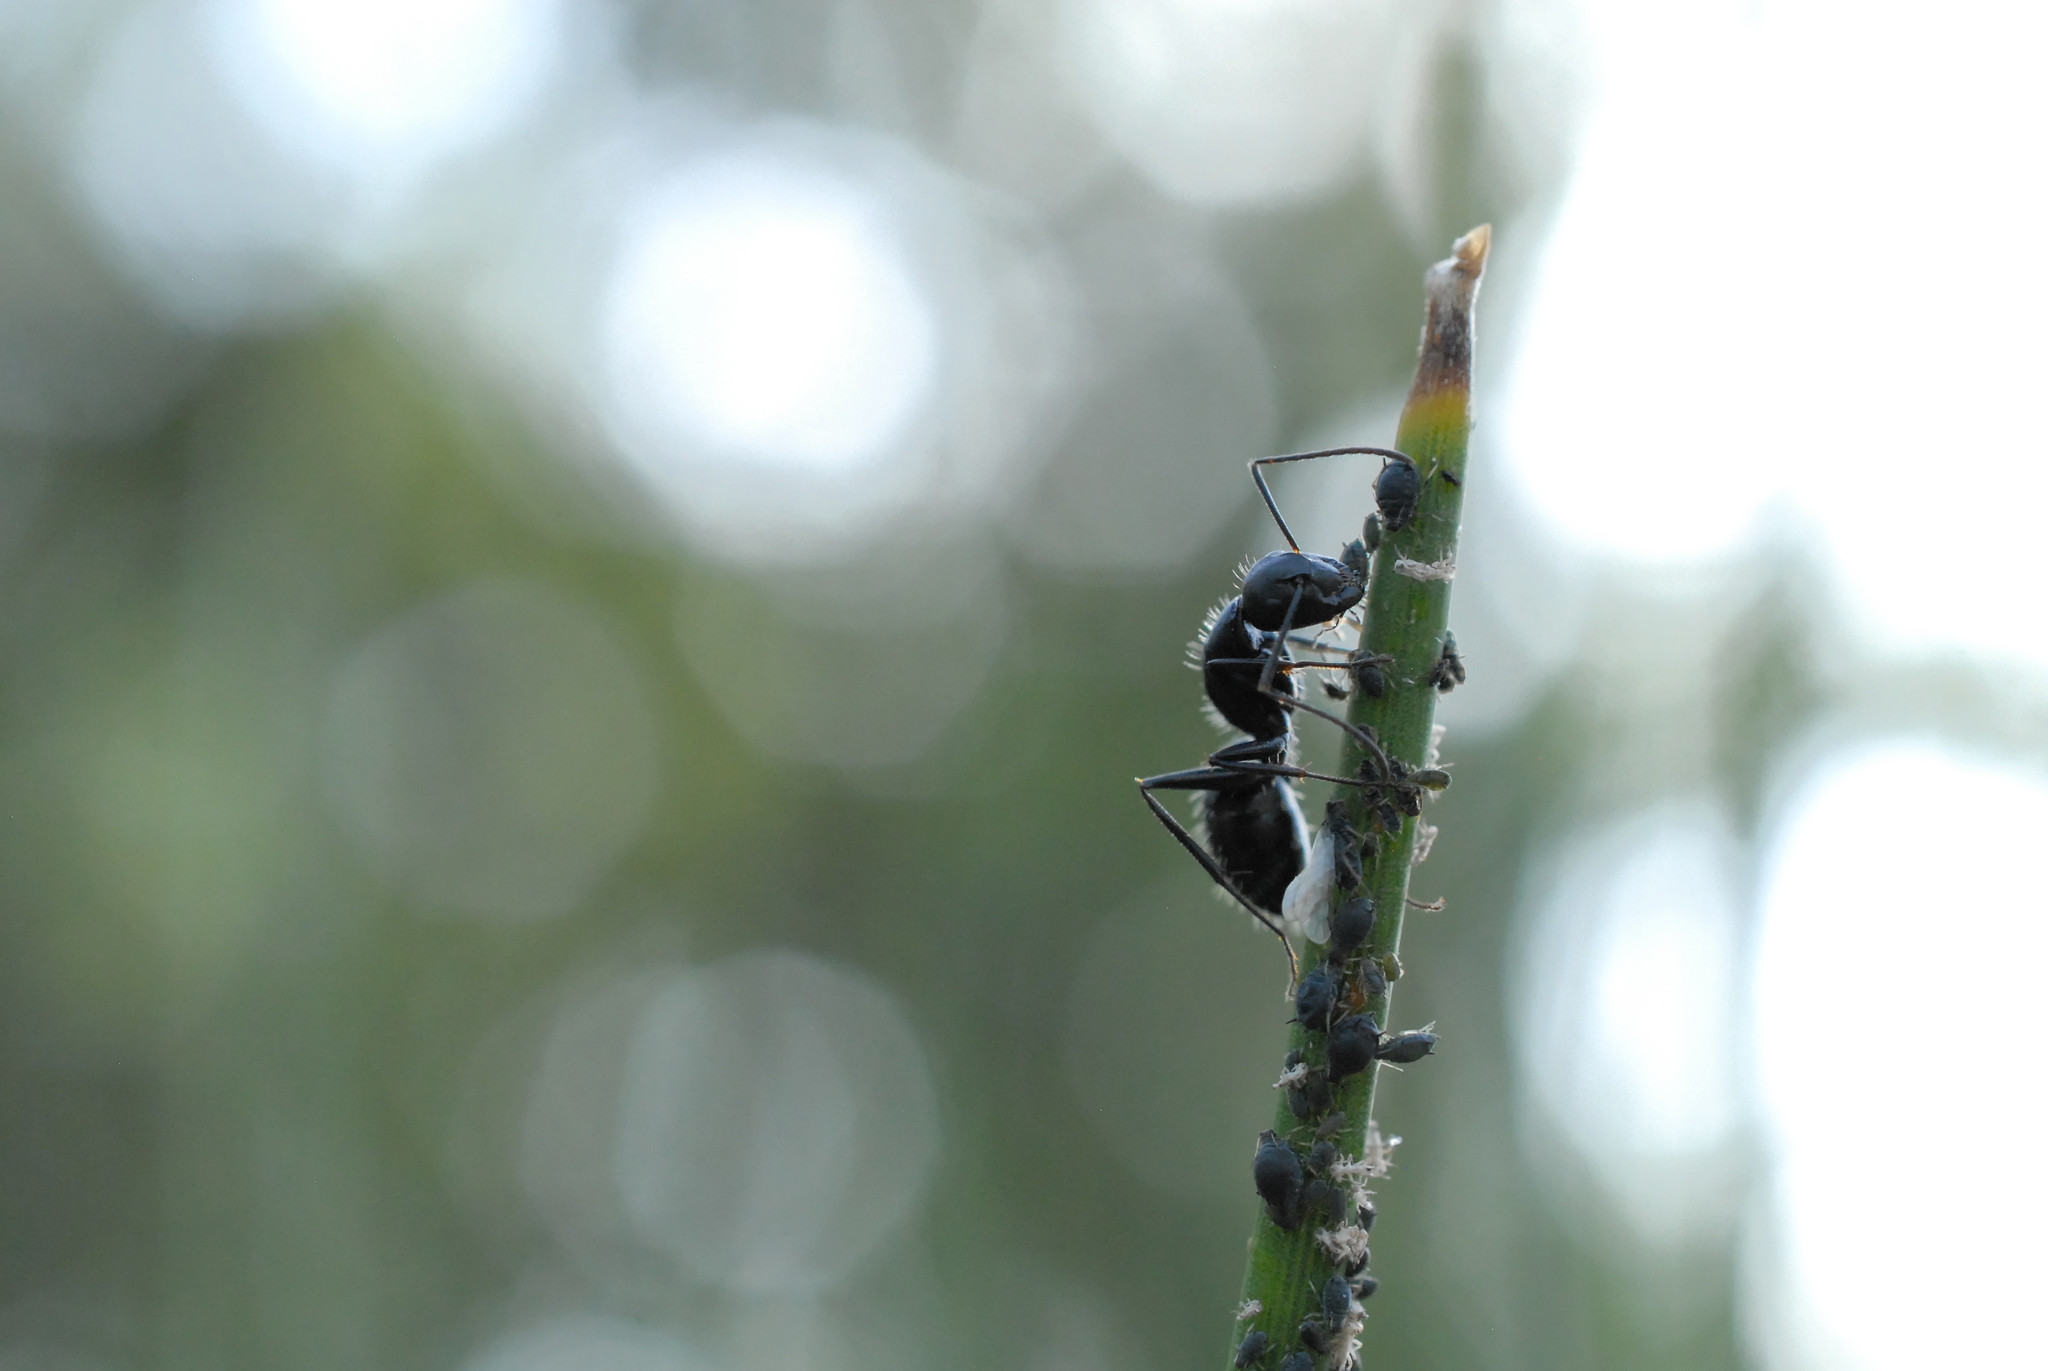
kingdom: Animalia
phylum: Arthropoda
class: Insecta
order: Hymenoptera
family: Formicidae
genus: Camponotus
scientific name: Camponotus vagus
